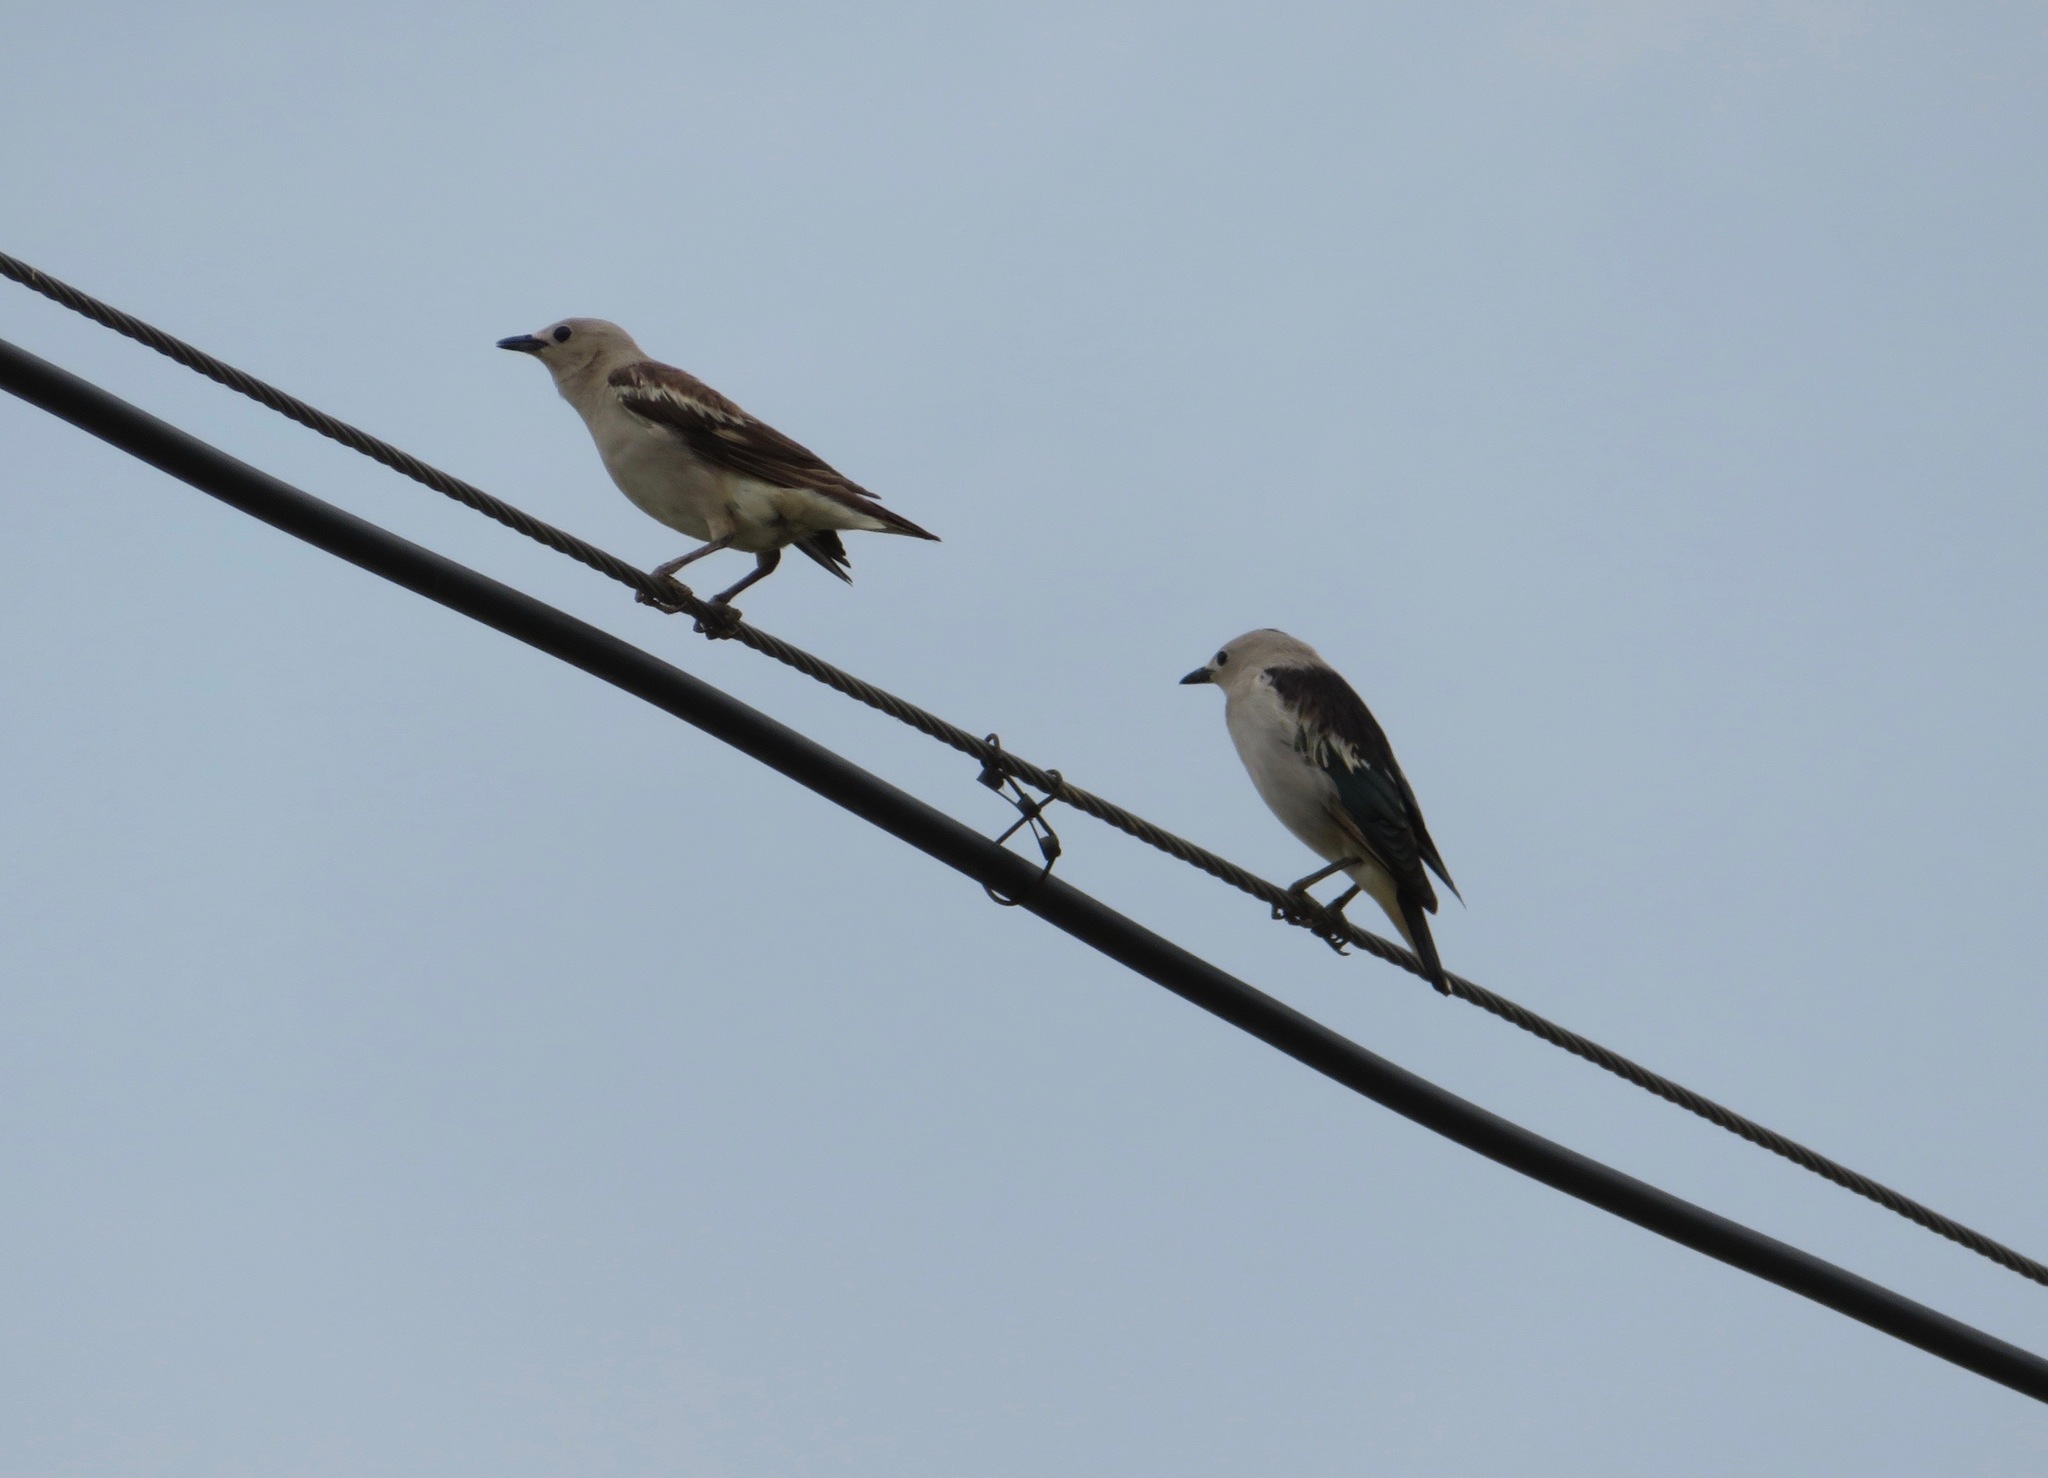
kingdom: Animalia
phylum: Chordata
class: Aves
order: Passeriformes
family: Sturnidae
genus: Agropsar
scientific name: Agropsar sturninus
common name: Daurian starling
